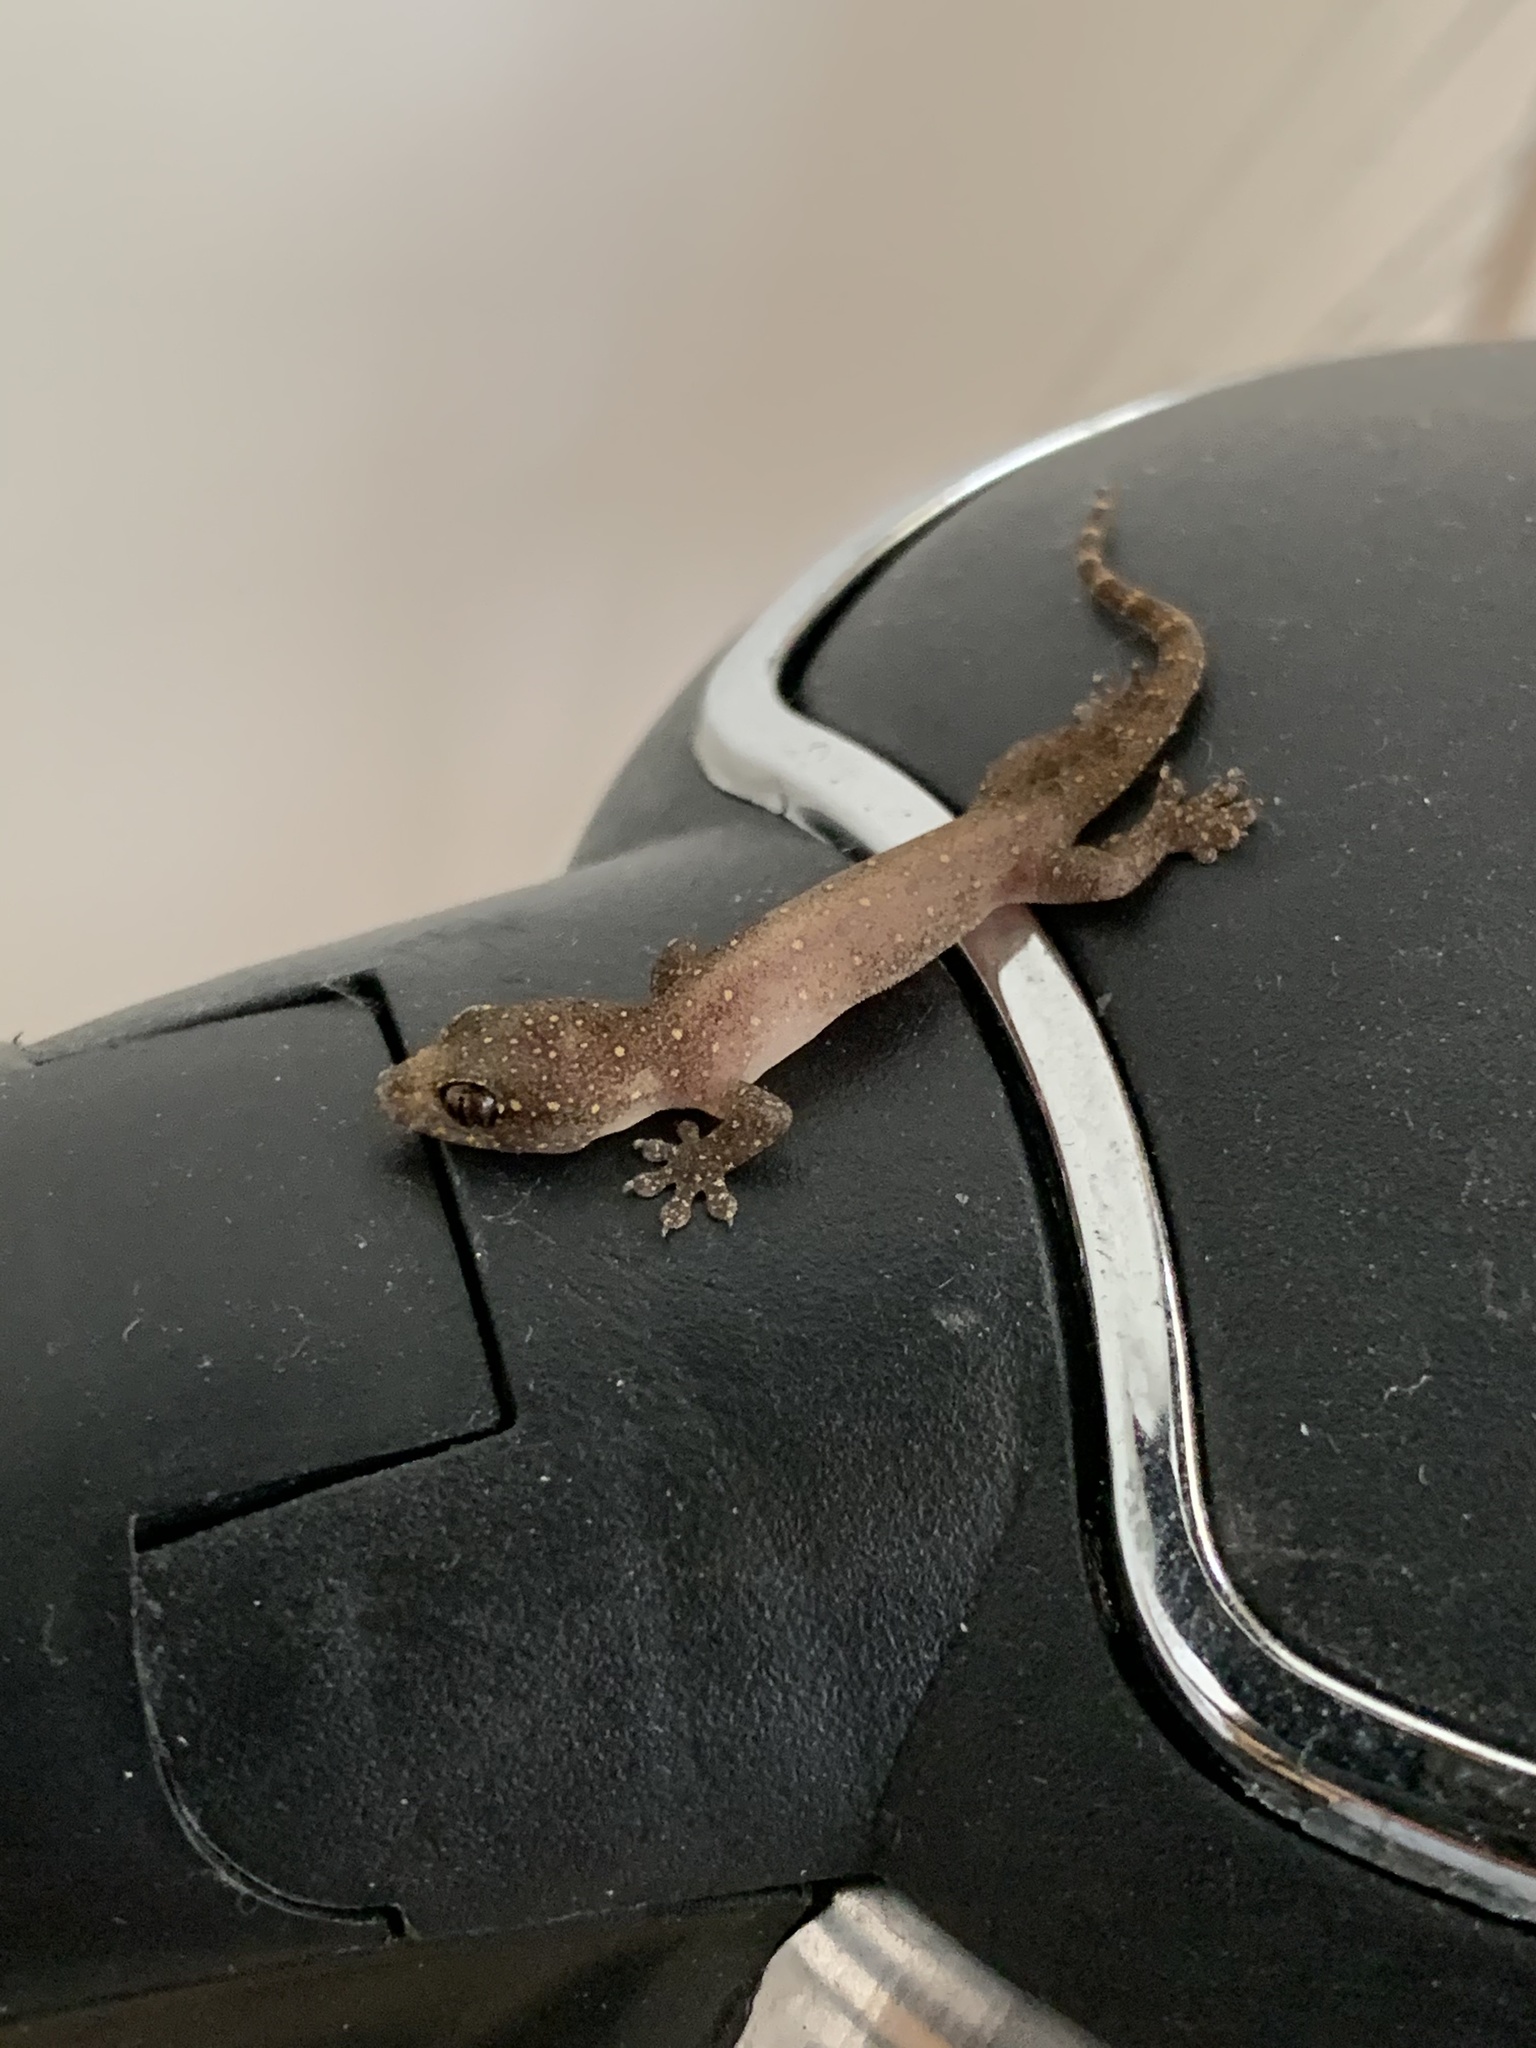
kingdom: Animalia
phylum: Chordata
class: Squamata
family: Gekkonidae
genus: Gehyra
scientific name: Gehyra mutilata
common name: Stump-toed gecko
